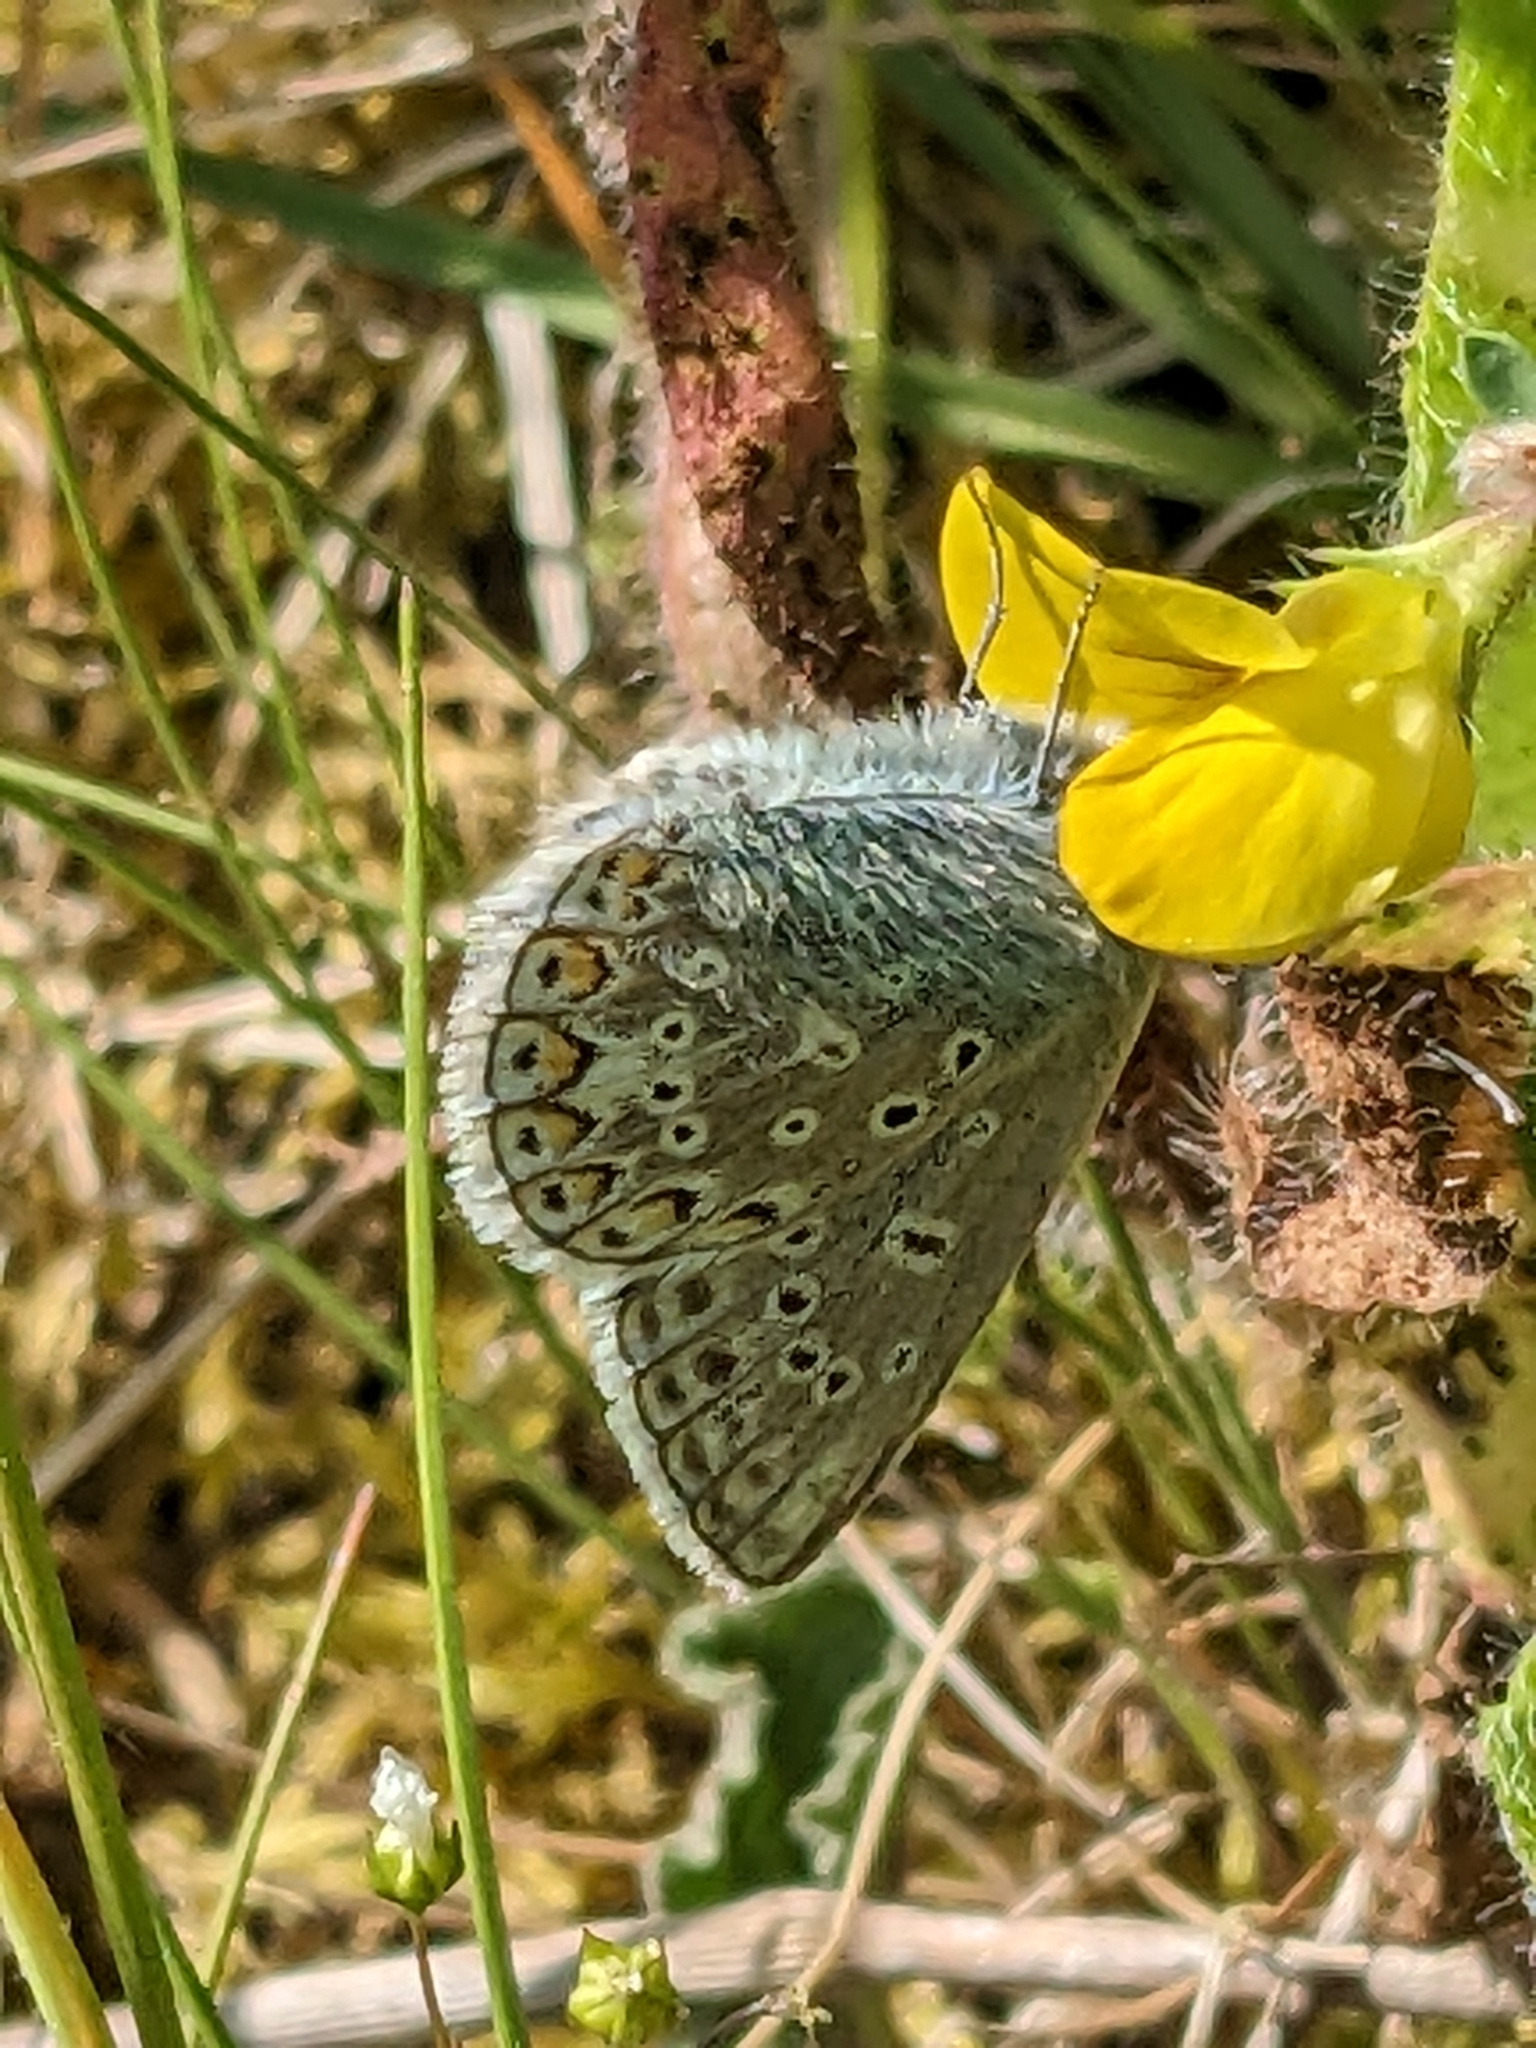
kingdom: Animalia
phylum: Arthropoda
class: Insecta
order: Lepidoptera
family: Lycaenidae
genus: Polyommatus
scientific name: Polyommatus icarus
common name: Common blue
